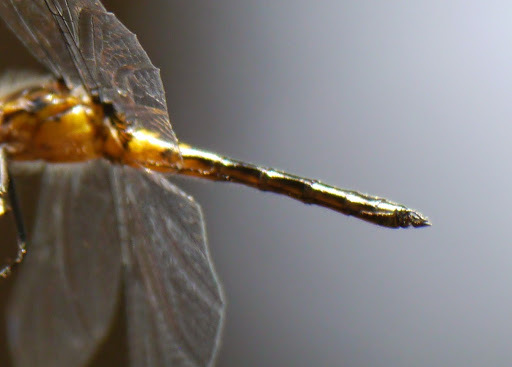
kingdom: Animalia
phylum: Arthropoda
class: Insecta
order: Odonata
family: Libellulidae
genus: Celithemis
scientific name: Celithemis verna
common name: Double-ringed pennant
